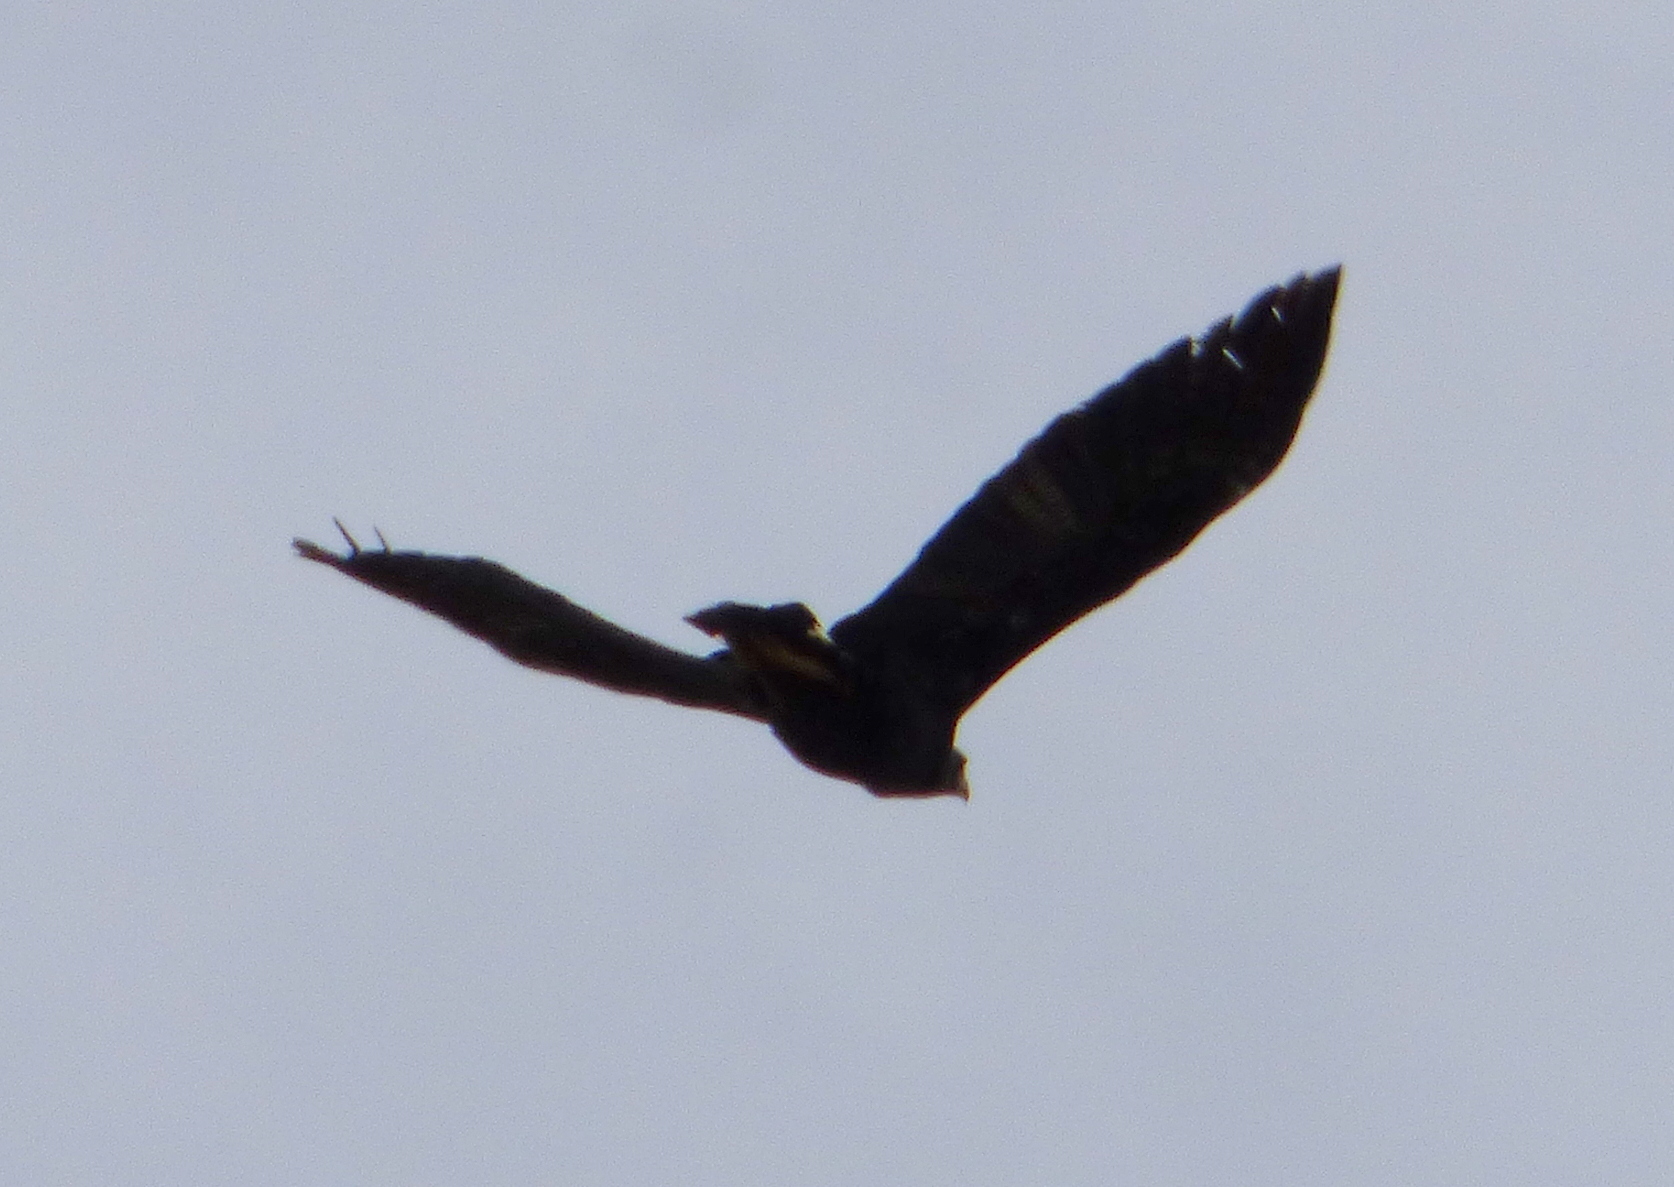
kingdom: Animalia
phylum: Chordata
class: Aves
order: Accipitriformes
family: Accipitridae
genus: Buteogallus
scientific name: Buteogallus urubitinga
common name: Great black hawk
